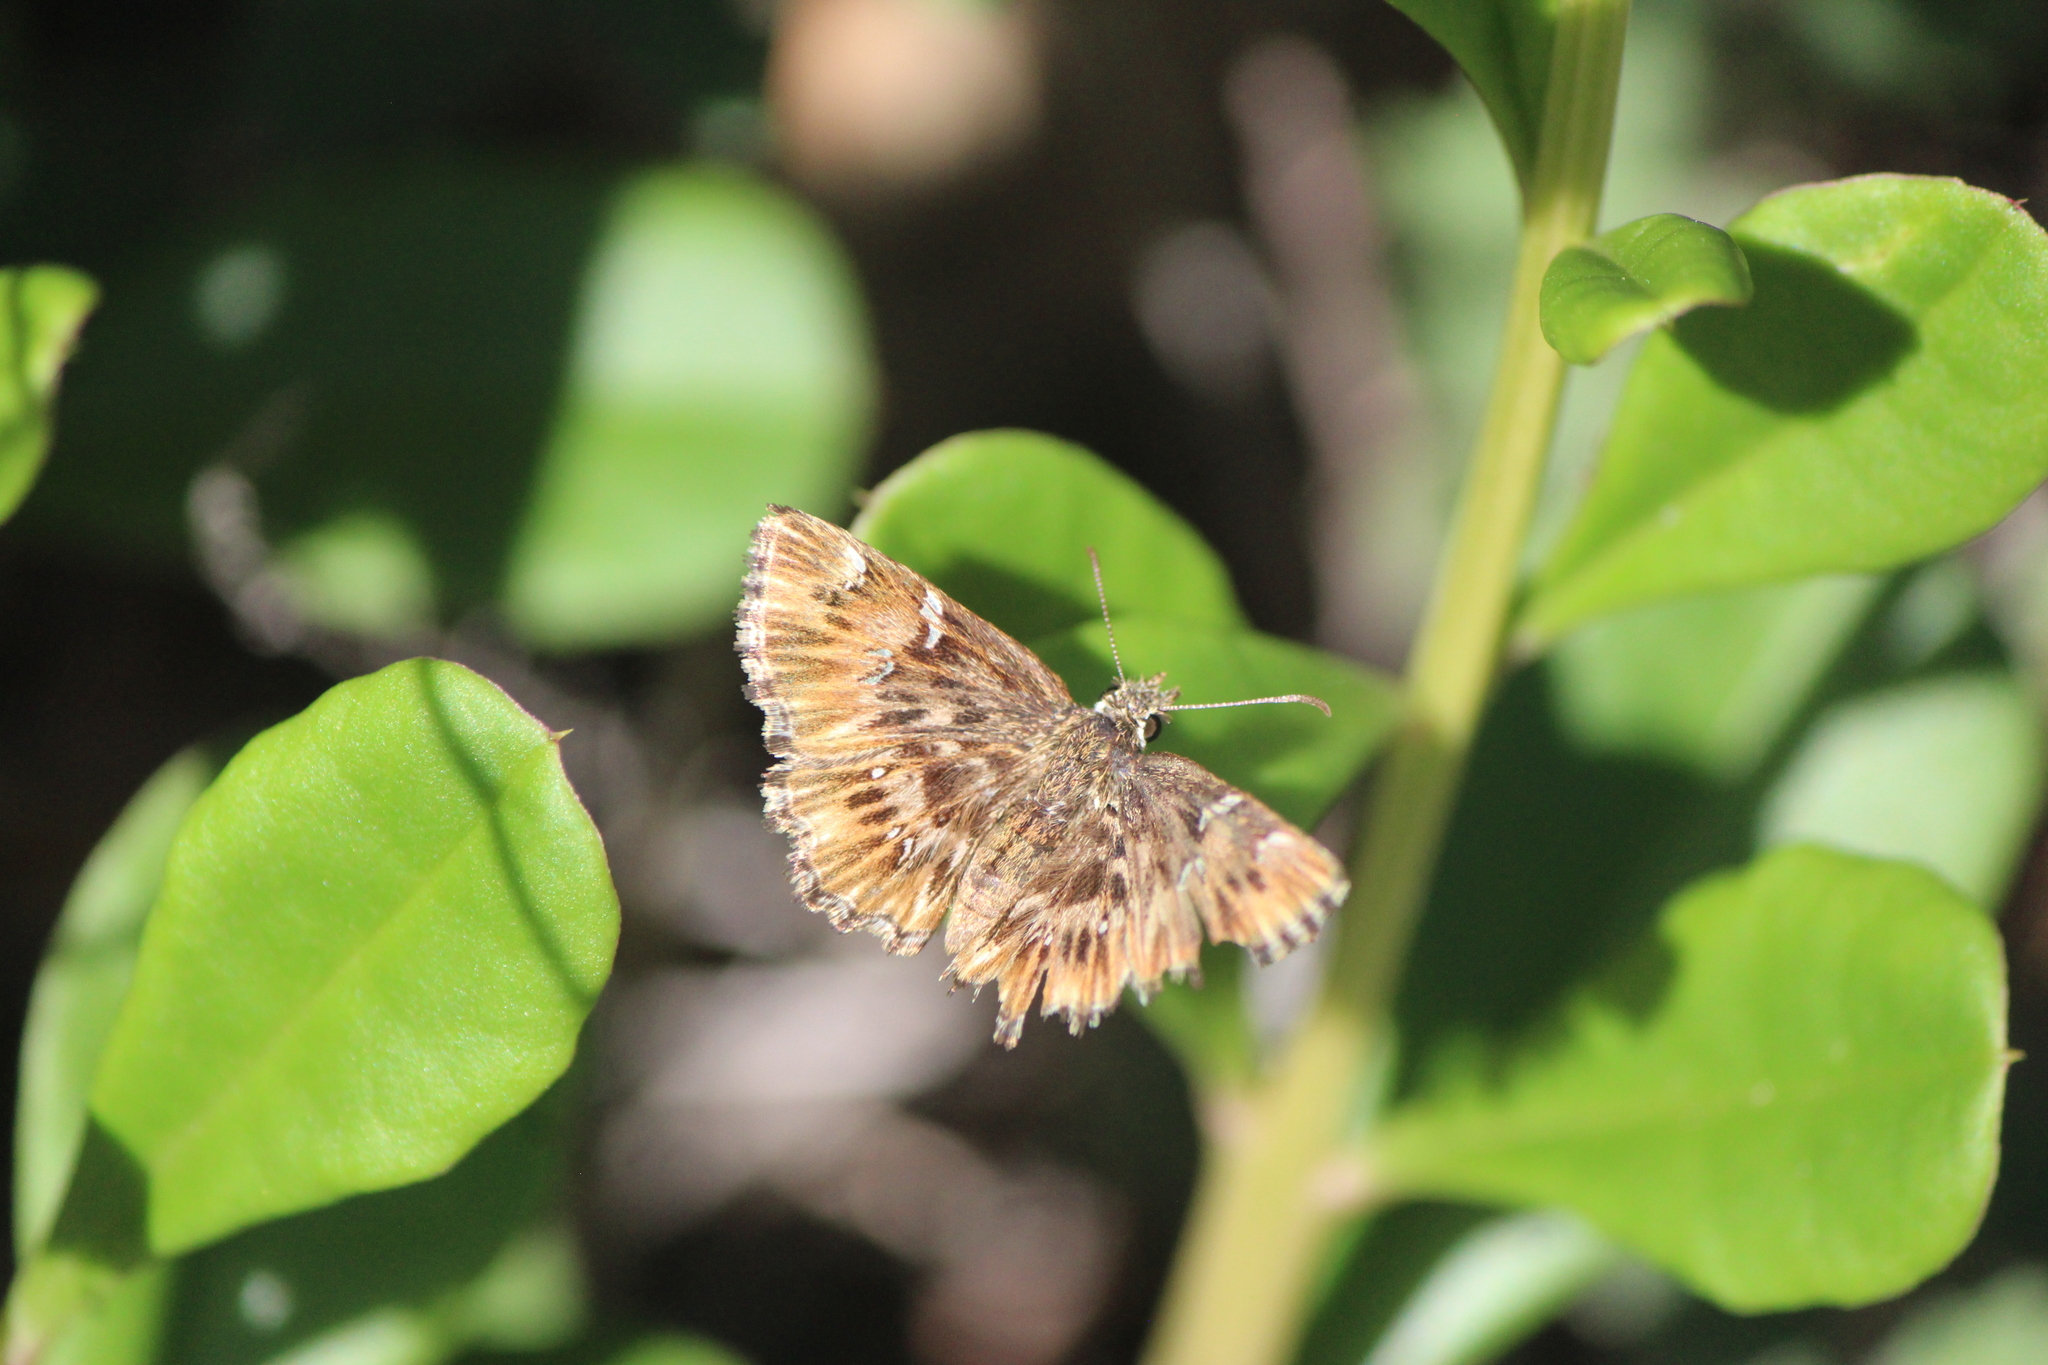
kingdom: Animalia
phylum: Arthropoda
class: Insecta
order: Lepidoptera
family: Hesperiidae
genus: Celotes
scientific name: Celotes spurcus
